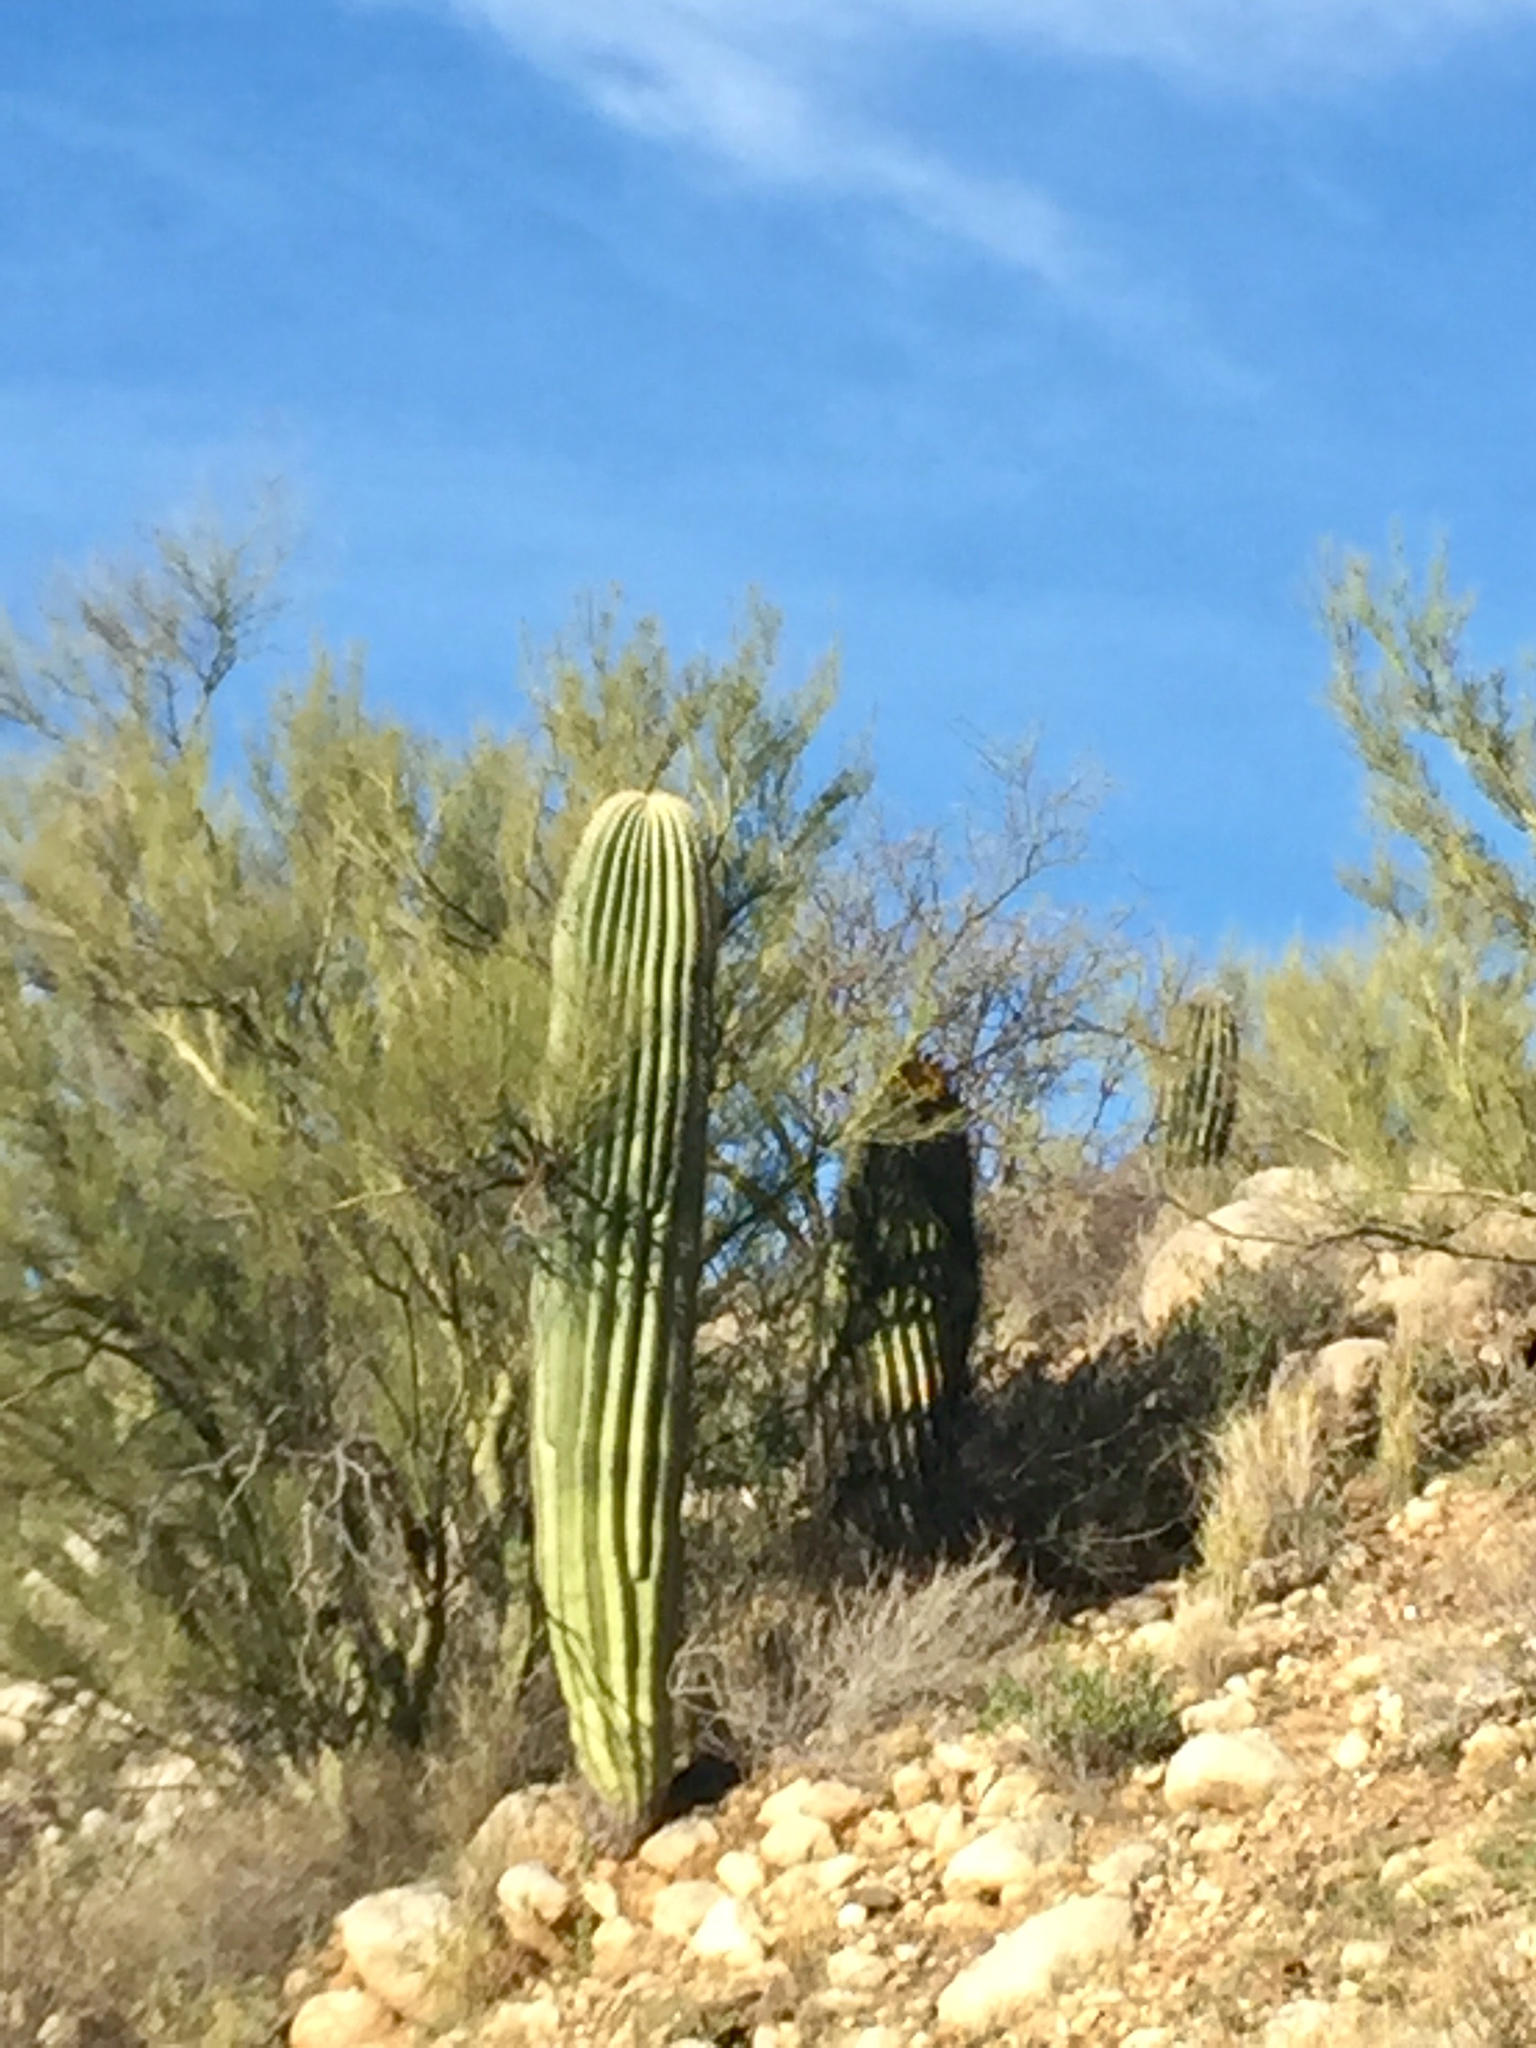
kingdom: Plantae
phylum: Tracheophyta
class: Magnoliopsida
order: Caryophyllales
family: Cactaceae
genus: Carnegiea
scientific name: Carnegiea gigantea
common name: Saguaro
